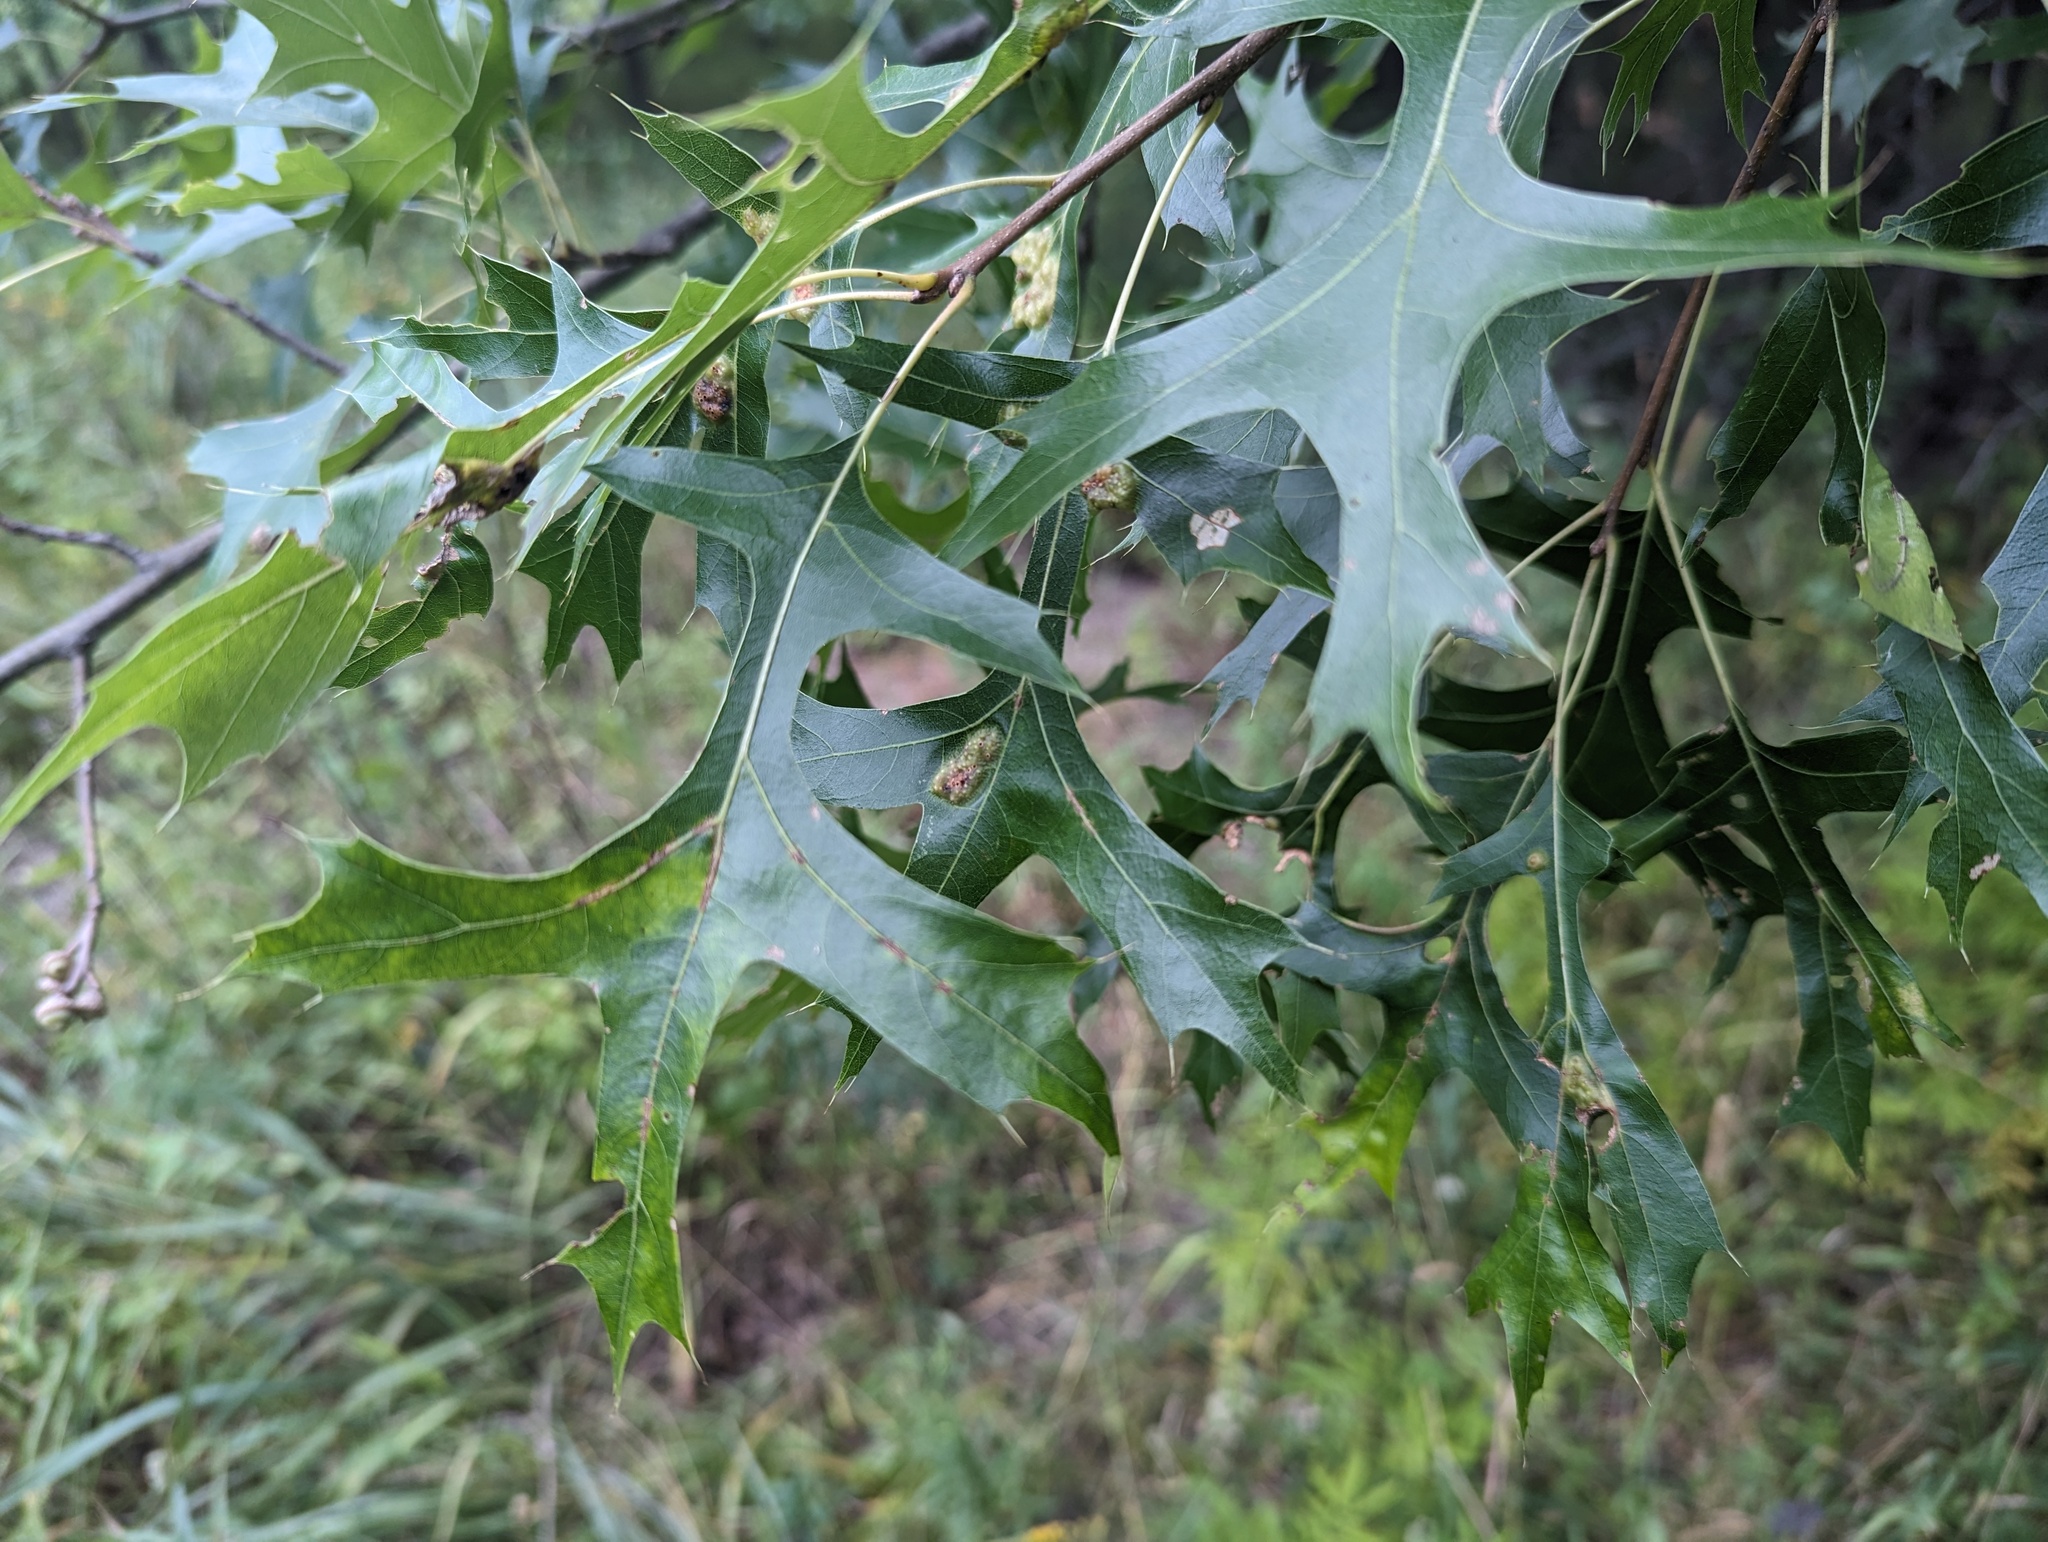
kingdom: Plantae
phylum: Tracheophyta
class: Magnoliopsida
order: Fagales
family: Fagaceae
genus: Quercus
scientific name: Quercus palustris
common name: Pin oak
